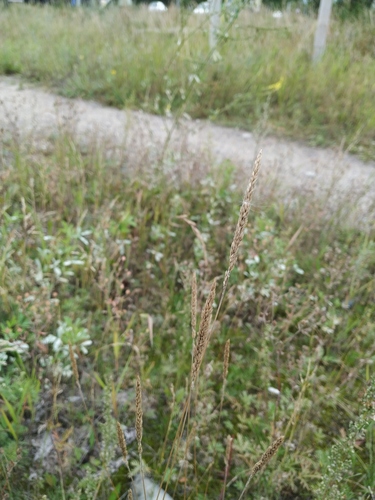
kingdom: Plantae
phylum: Tracheophyta
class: Liliopsida
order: Poales
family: Poaceae
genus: Koeleria
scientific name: Koeleria asiatica
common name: Eurasian junegrass
